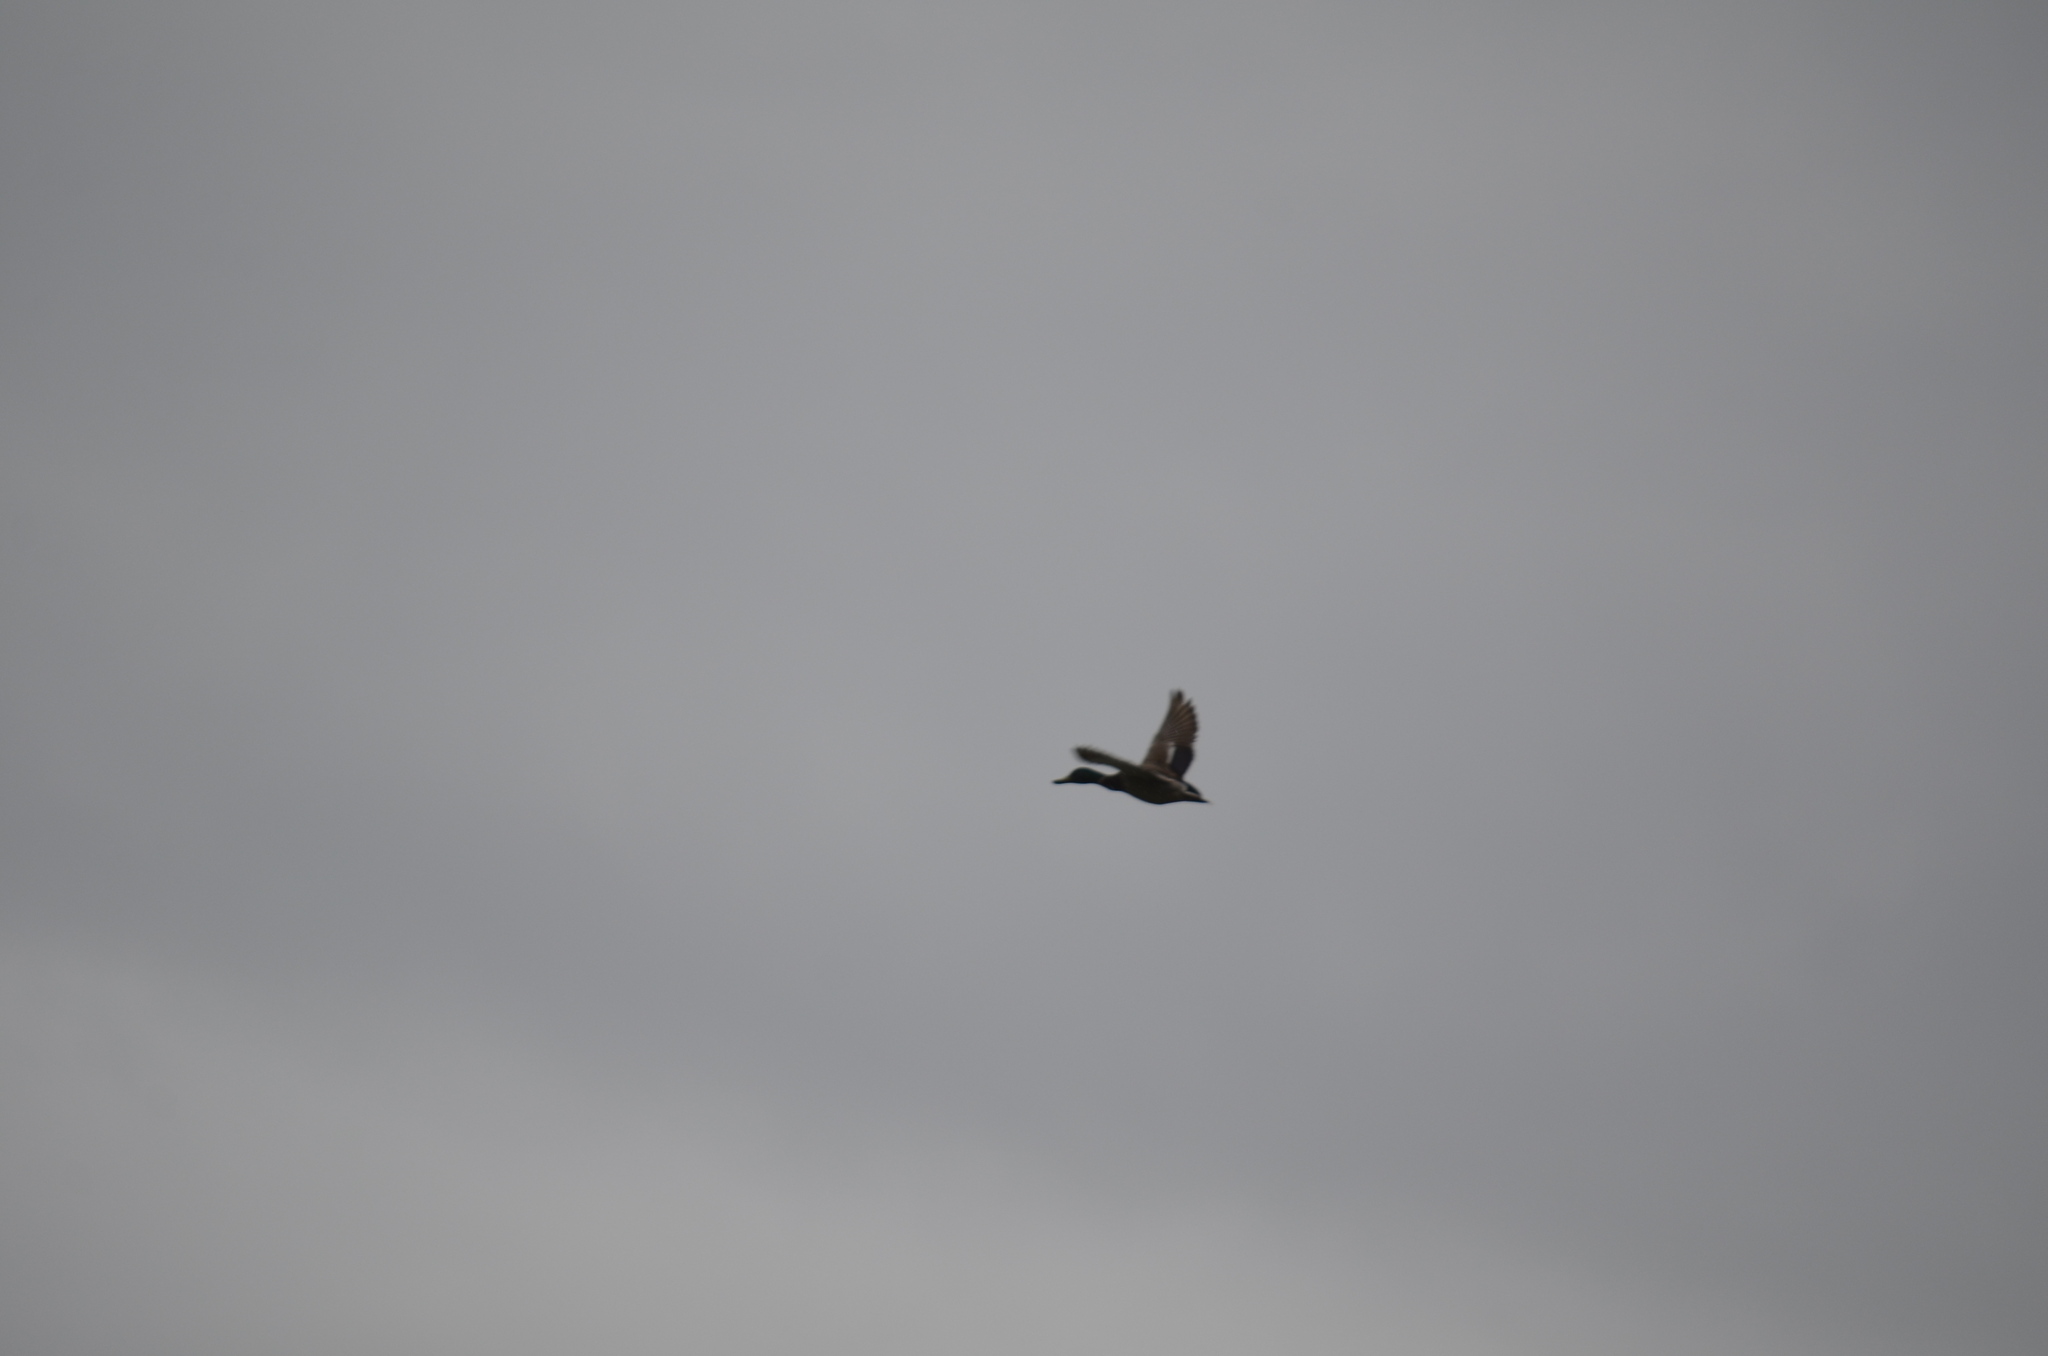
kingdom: Animalia
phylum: Chordata
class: Aves
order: Anseriformes
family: Anatidae
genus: Anas
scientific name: Anas platyrhynchos
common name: Mallard
